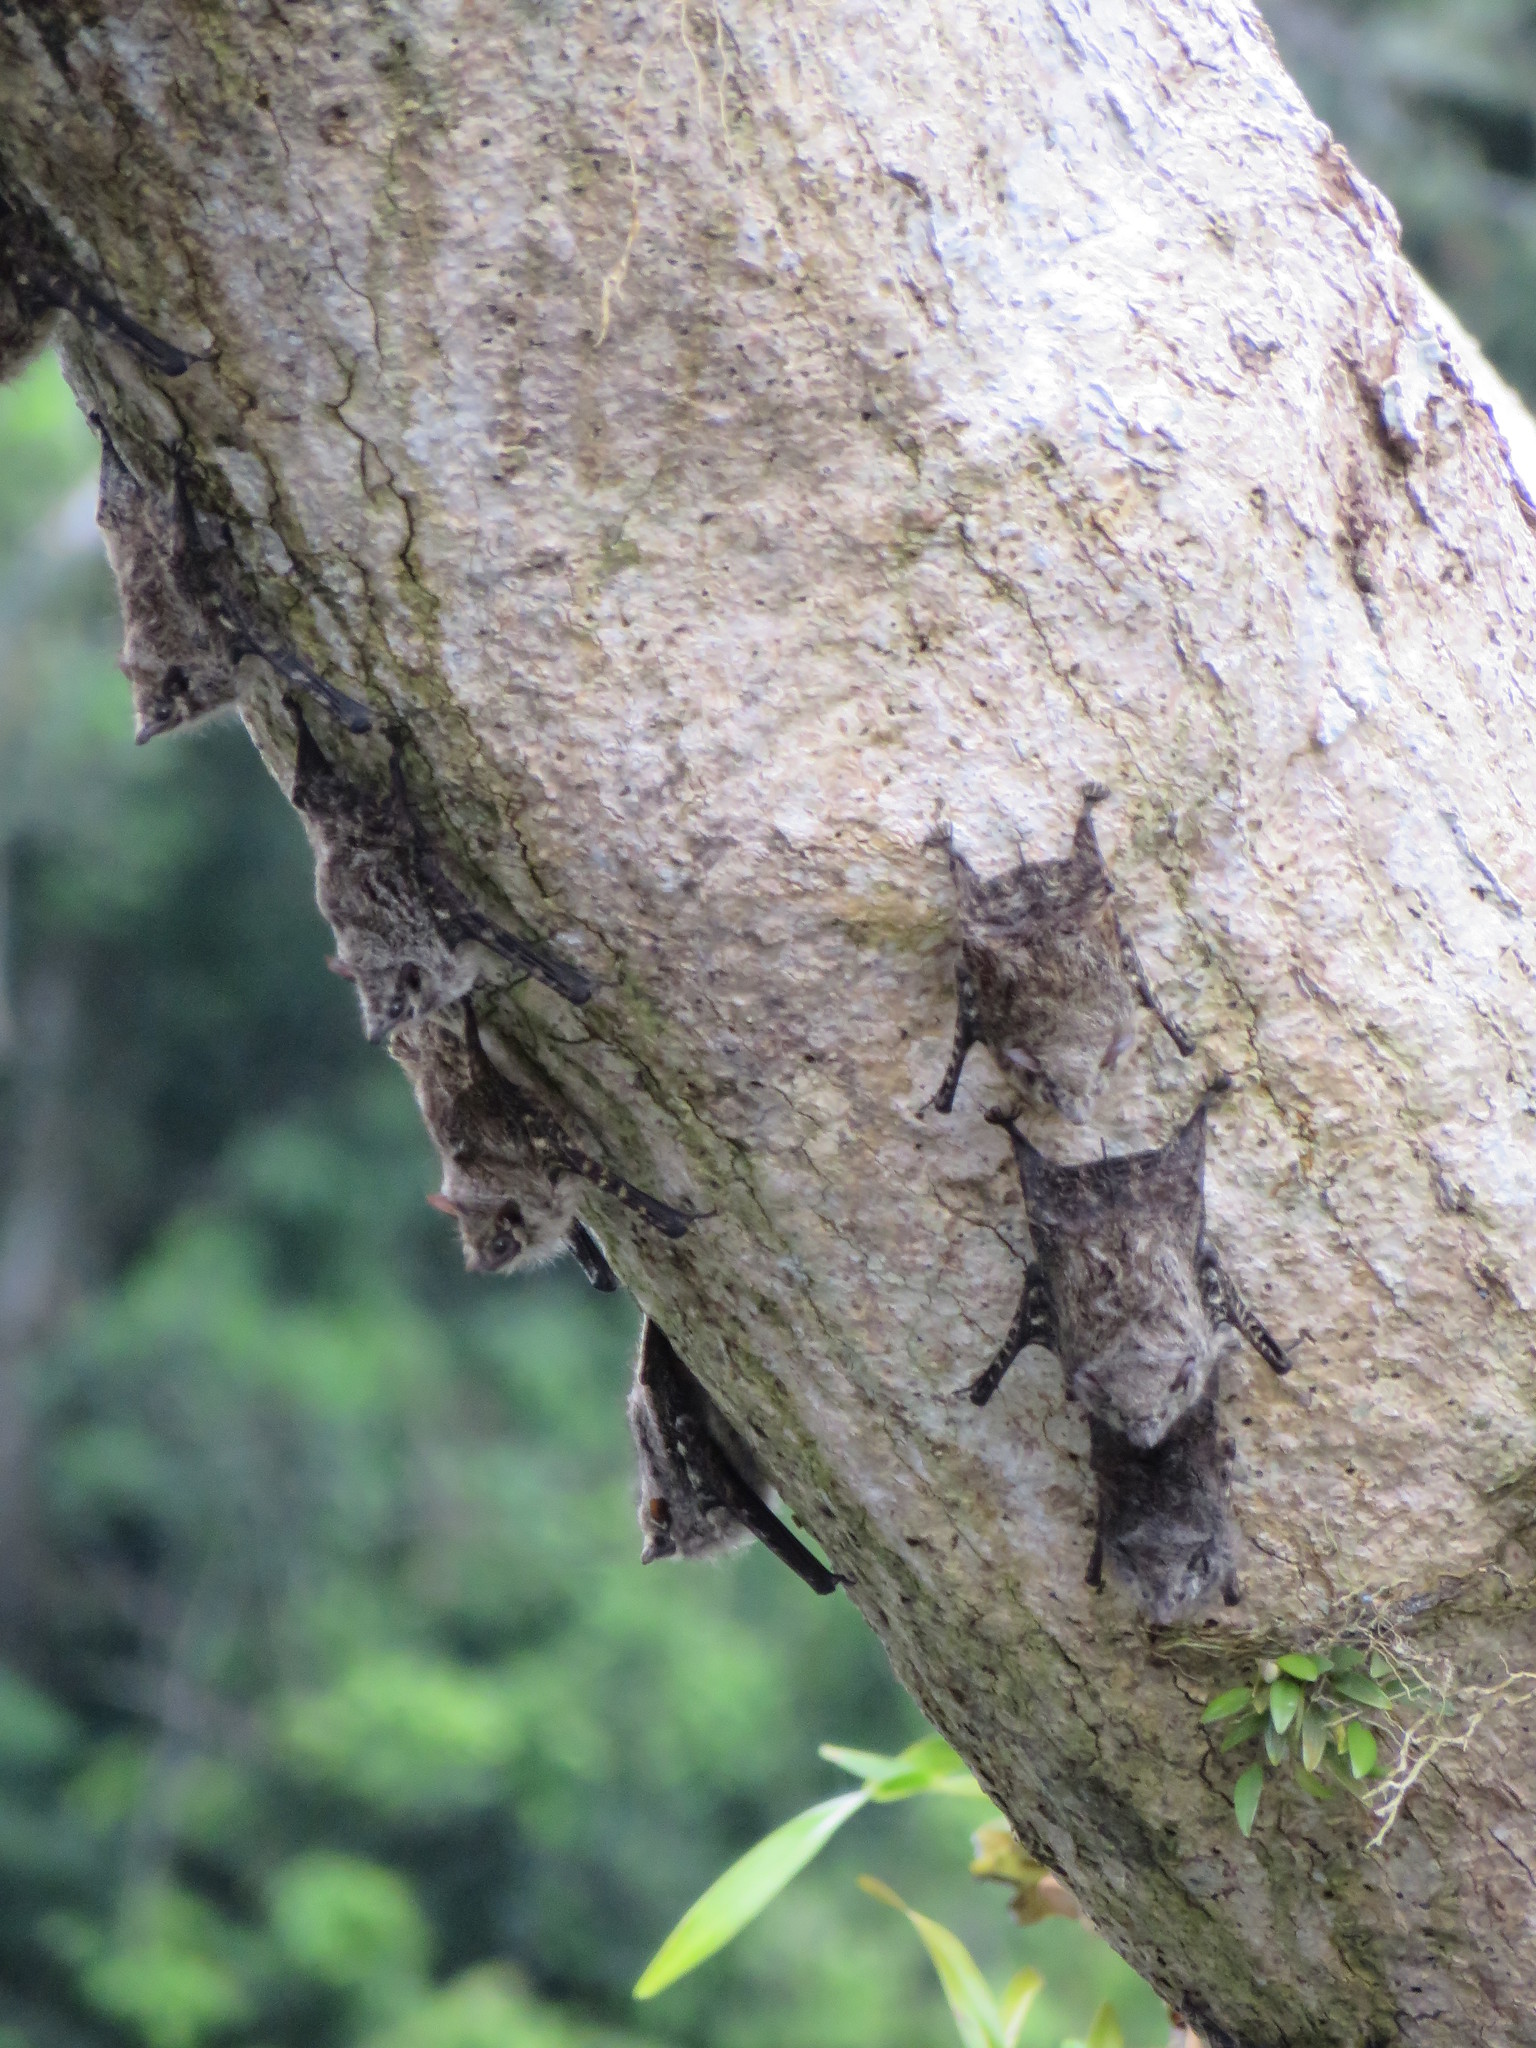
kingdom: Animalia
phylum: Chordata
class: Mammalia
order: Chiroptera
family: Emballonuridae
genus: Rhynchonycteris
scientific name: Rhynchonycteris naso
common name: Proboscis bat
